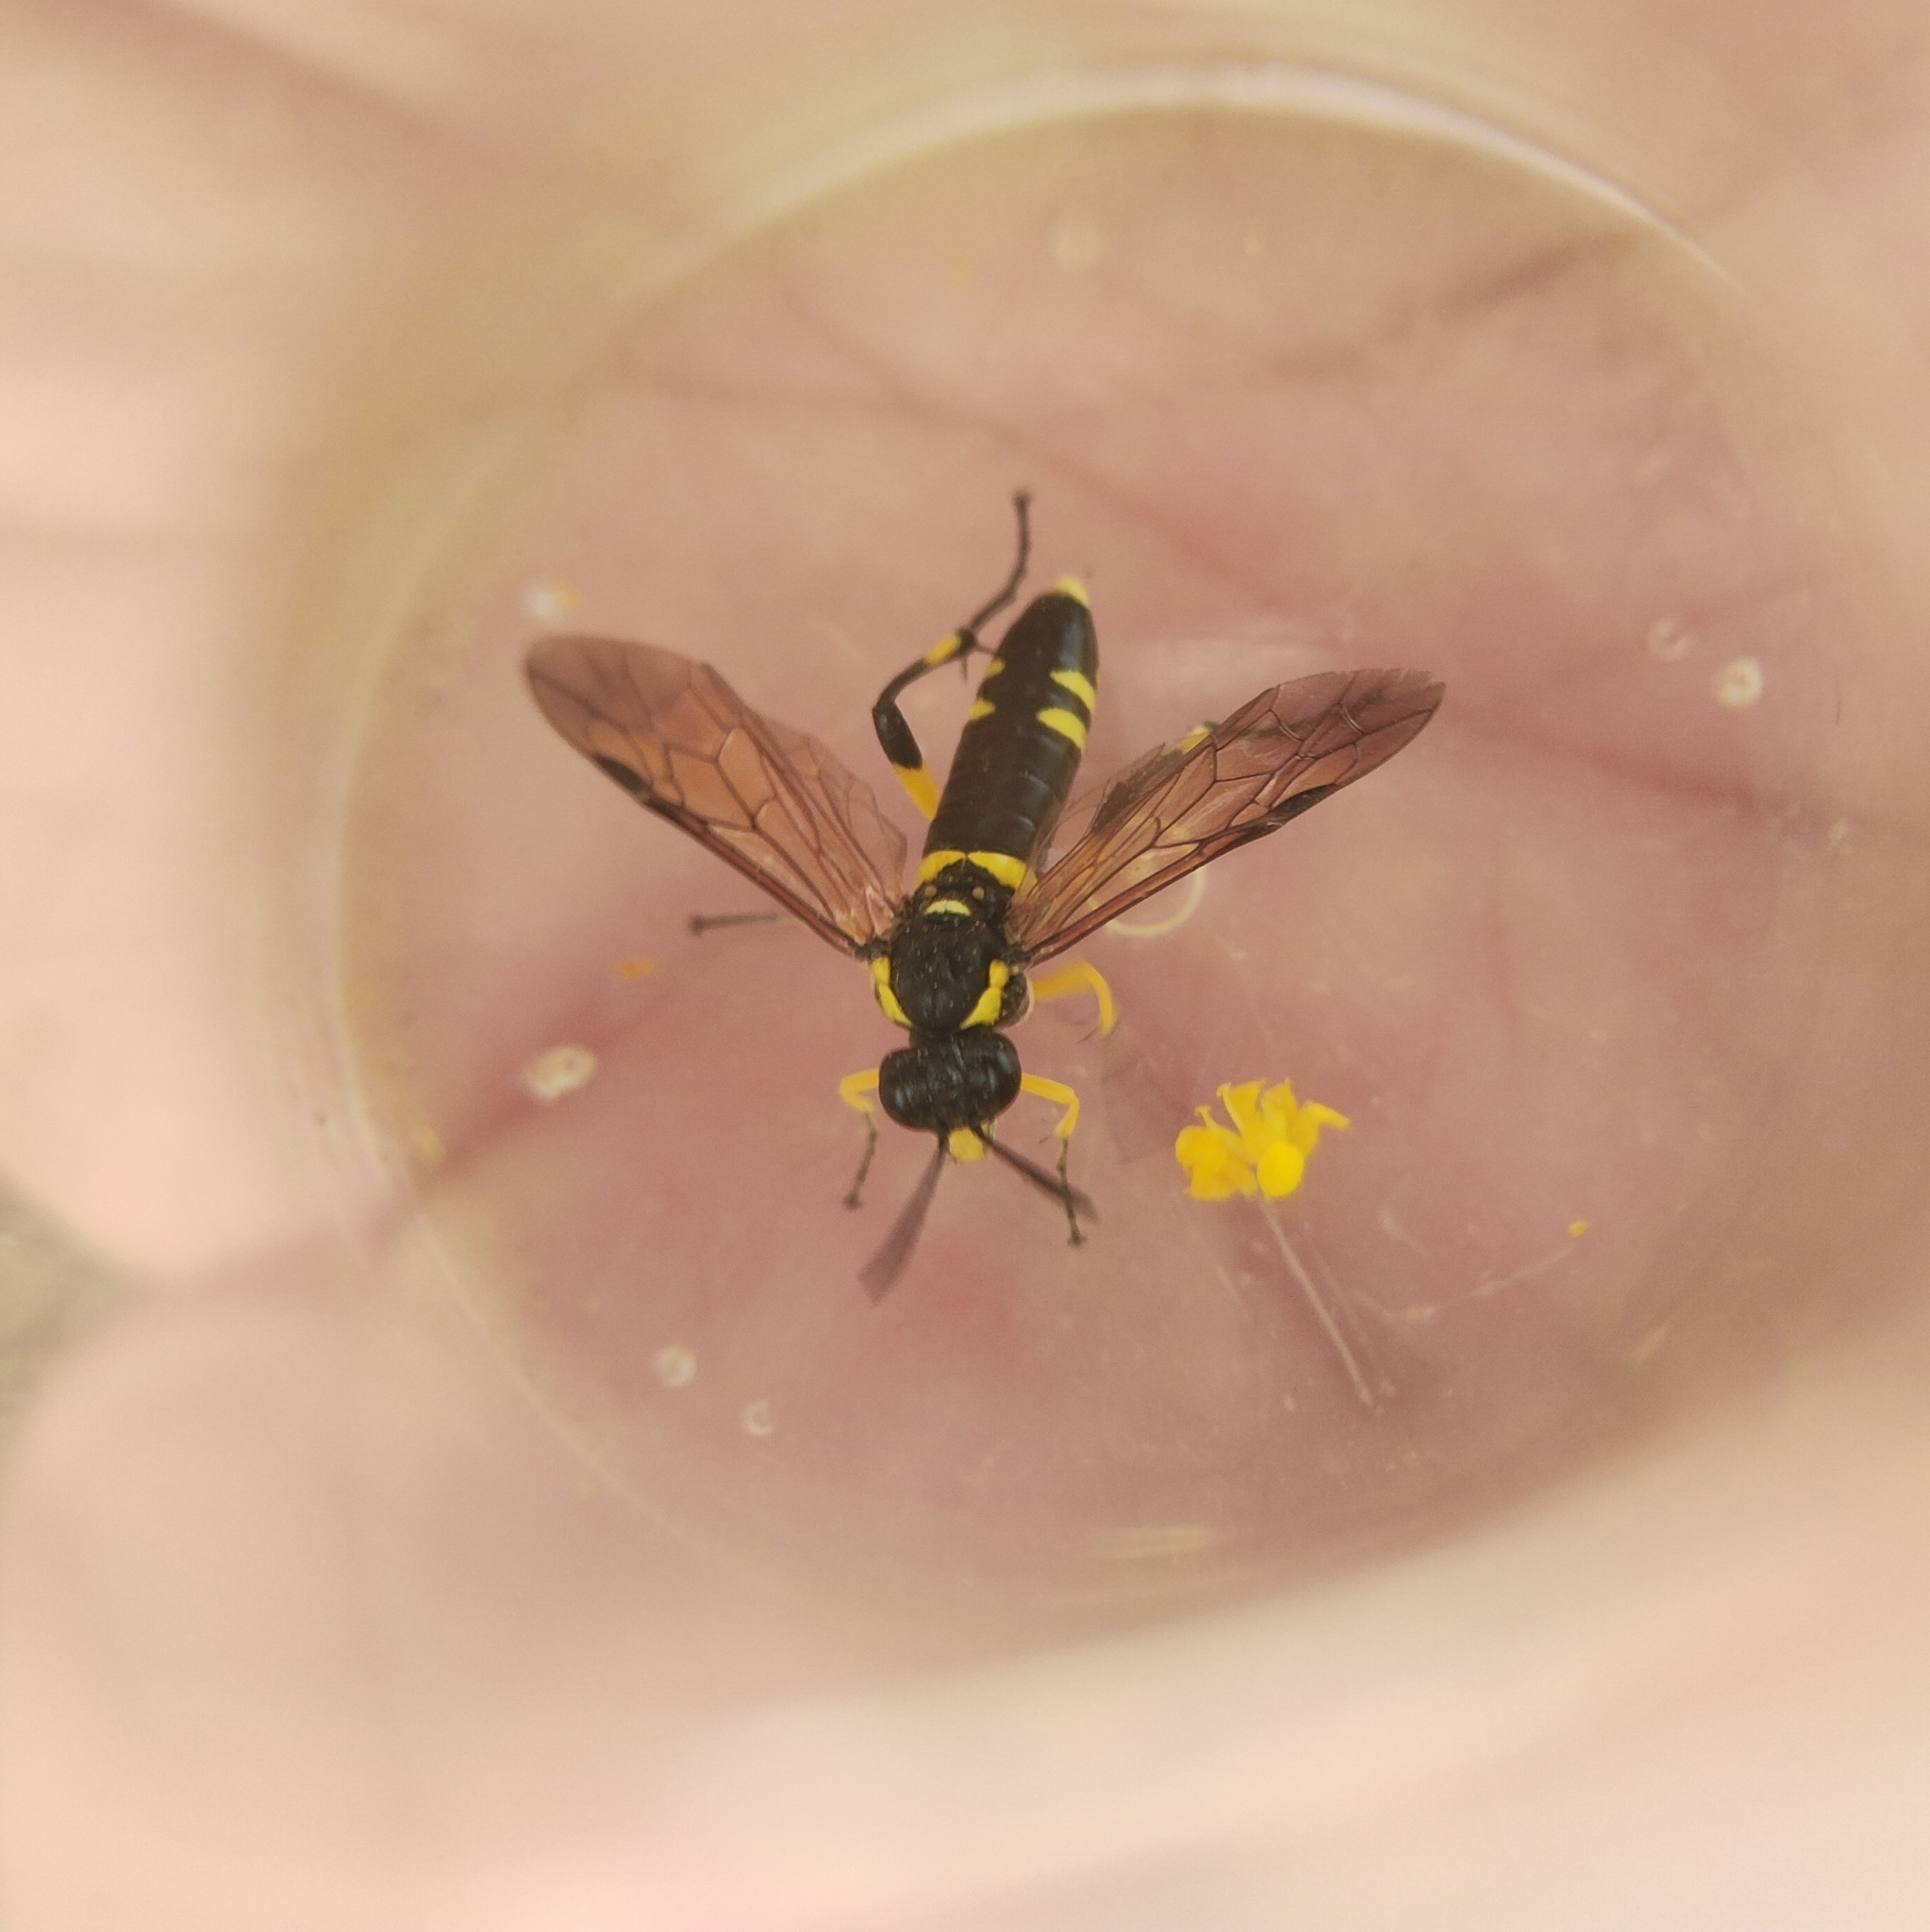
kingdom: Animalia
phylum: Arthropoda
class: Insecta
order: Hymenoptera
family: Tenthredinidae
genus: Macrophya
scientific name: Macrophya montana
